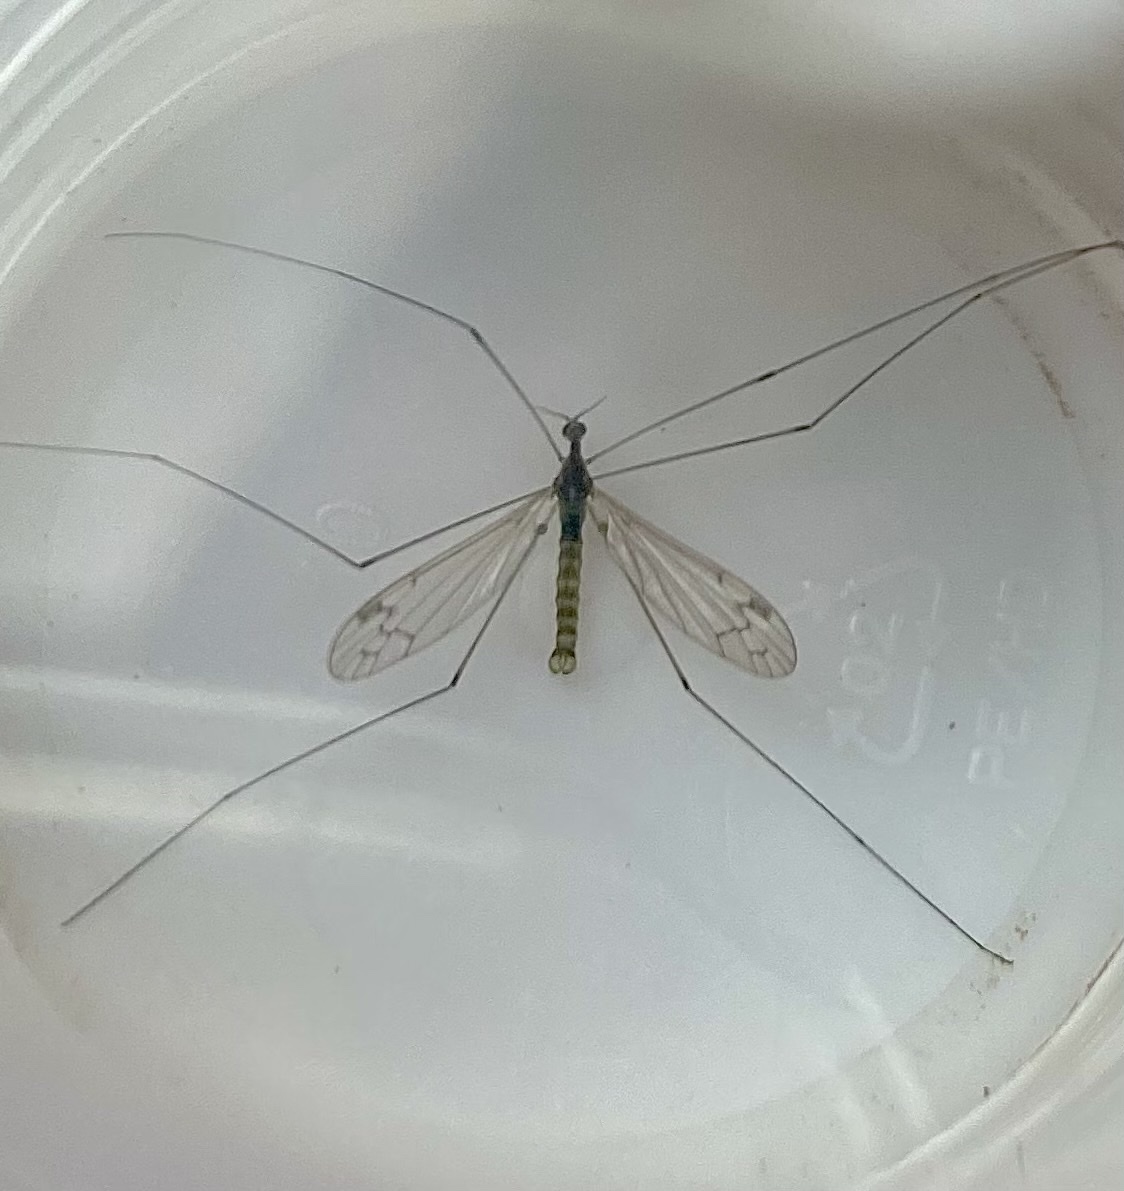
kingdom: Animalia
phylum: Arthropoda
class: Insecta
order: Diptera
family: Limoniidae
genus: Dicranomyia
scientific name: Dicranomyia chorea
